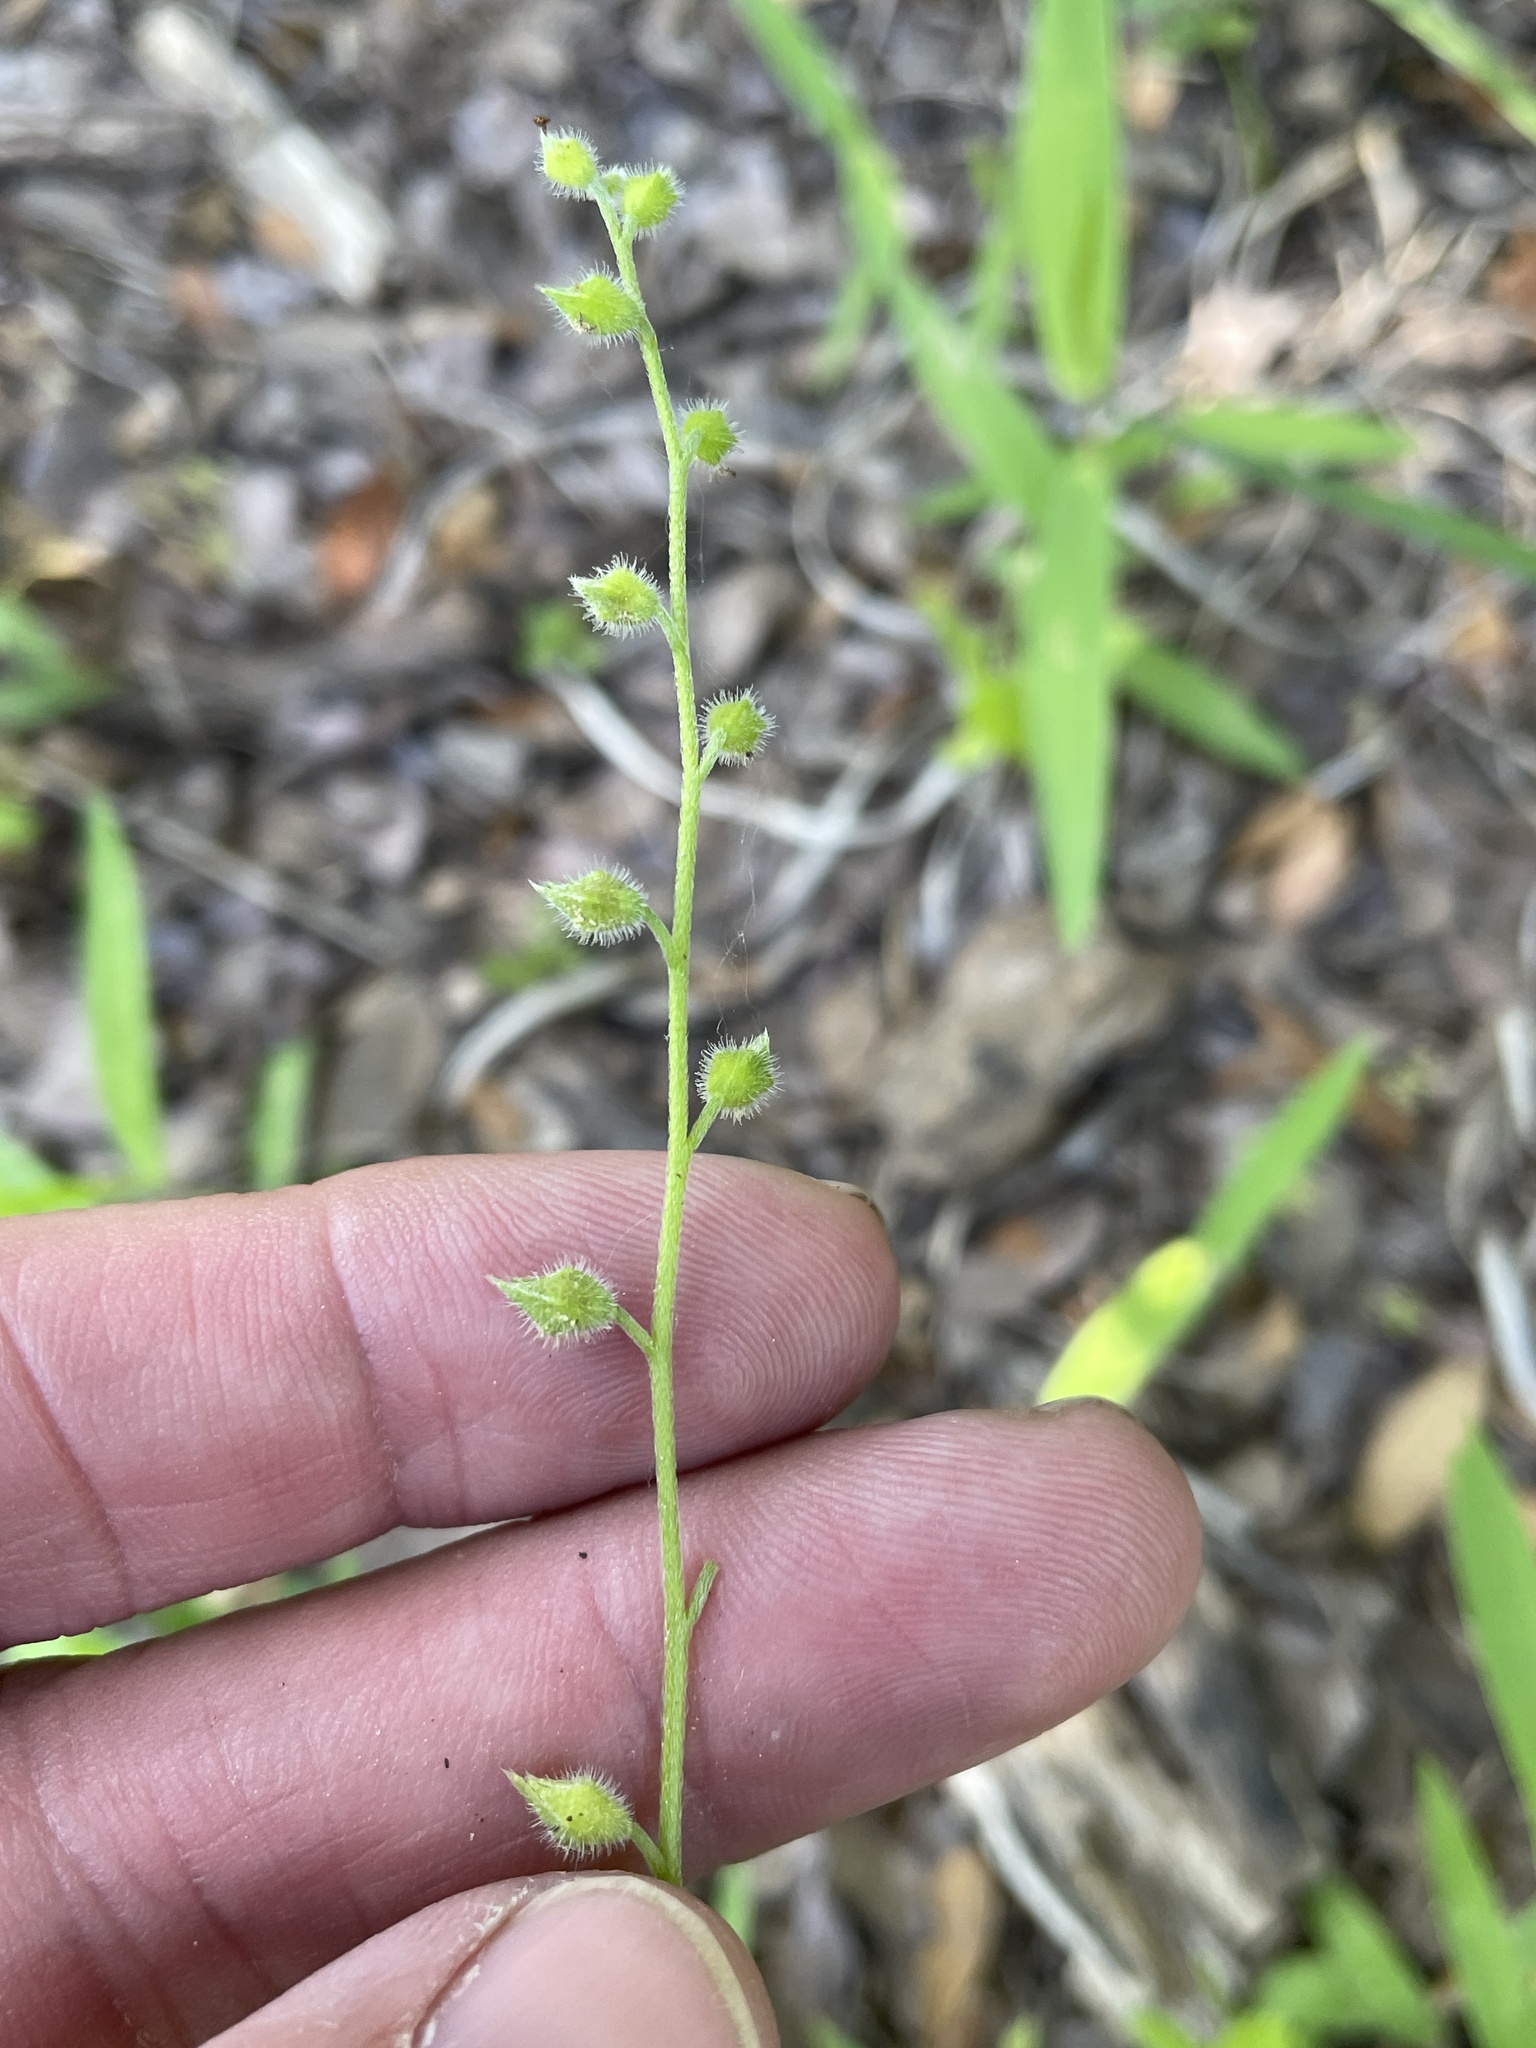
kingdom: Plantae
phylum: Tracheophyta
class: Magnoliopsida
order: Boraginales
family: Boraginaceae
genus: Myosotis
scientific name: Myosotis macrosperma
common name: Large-seed forget-me-not
